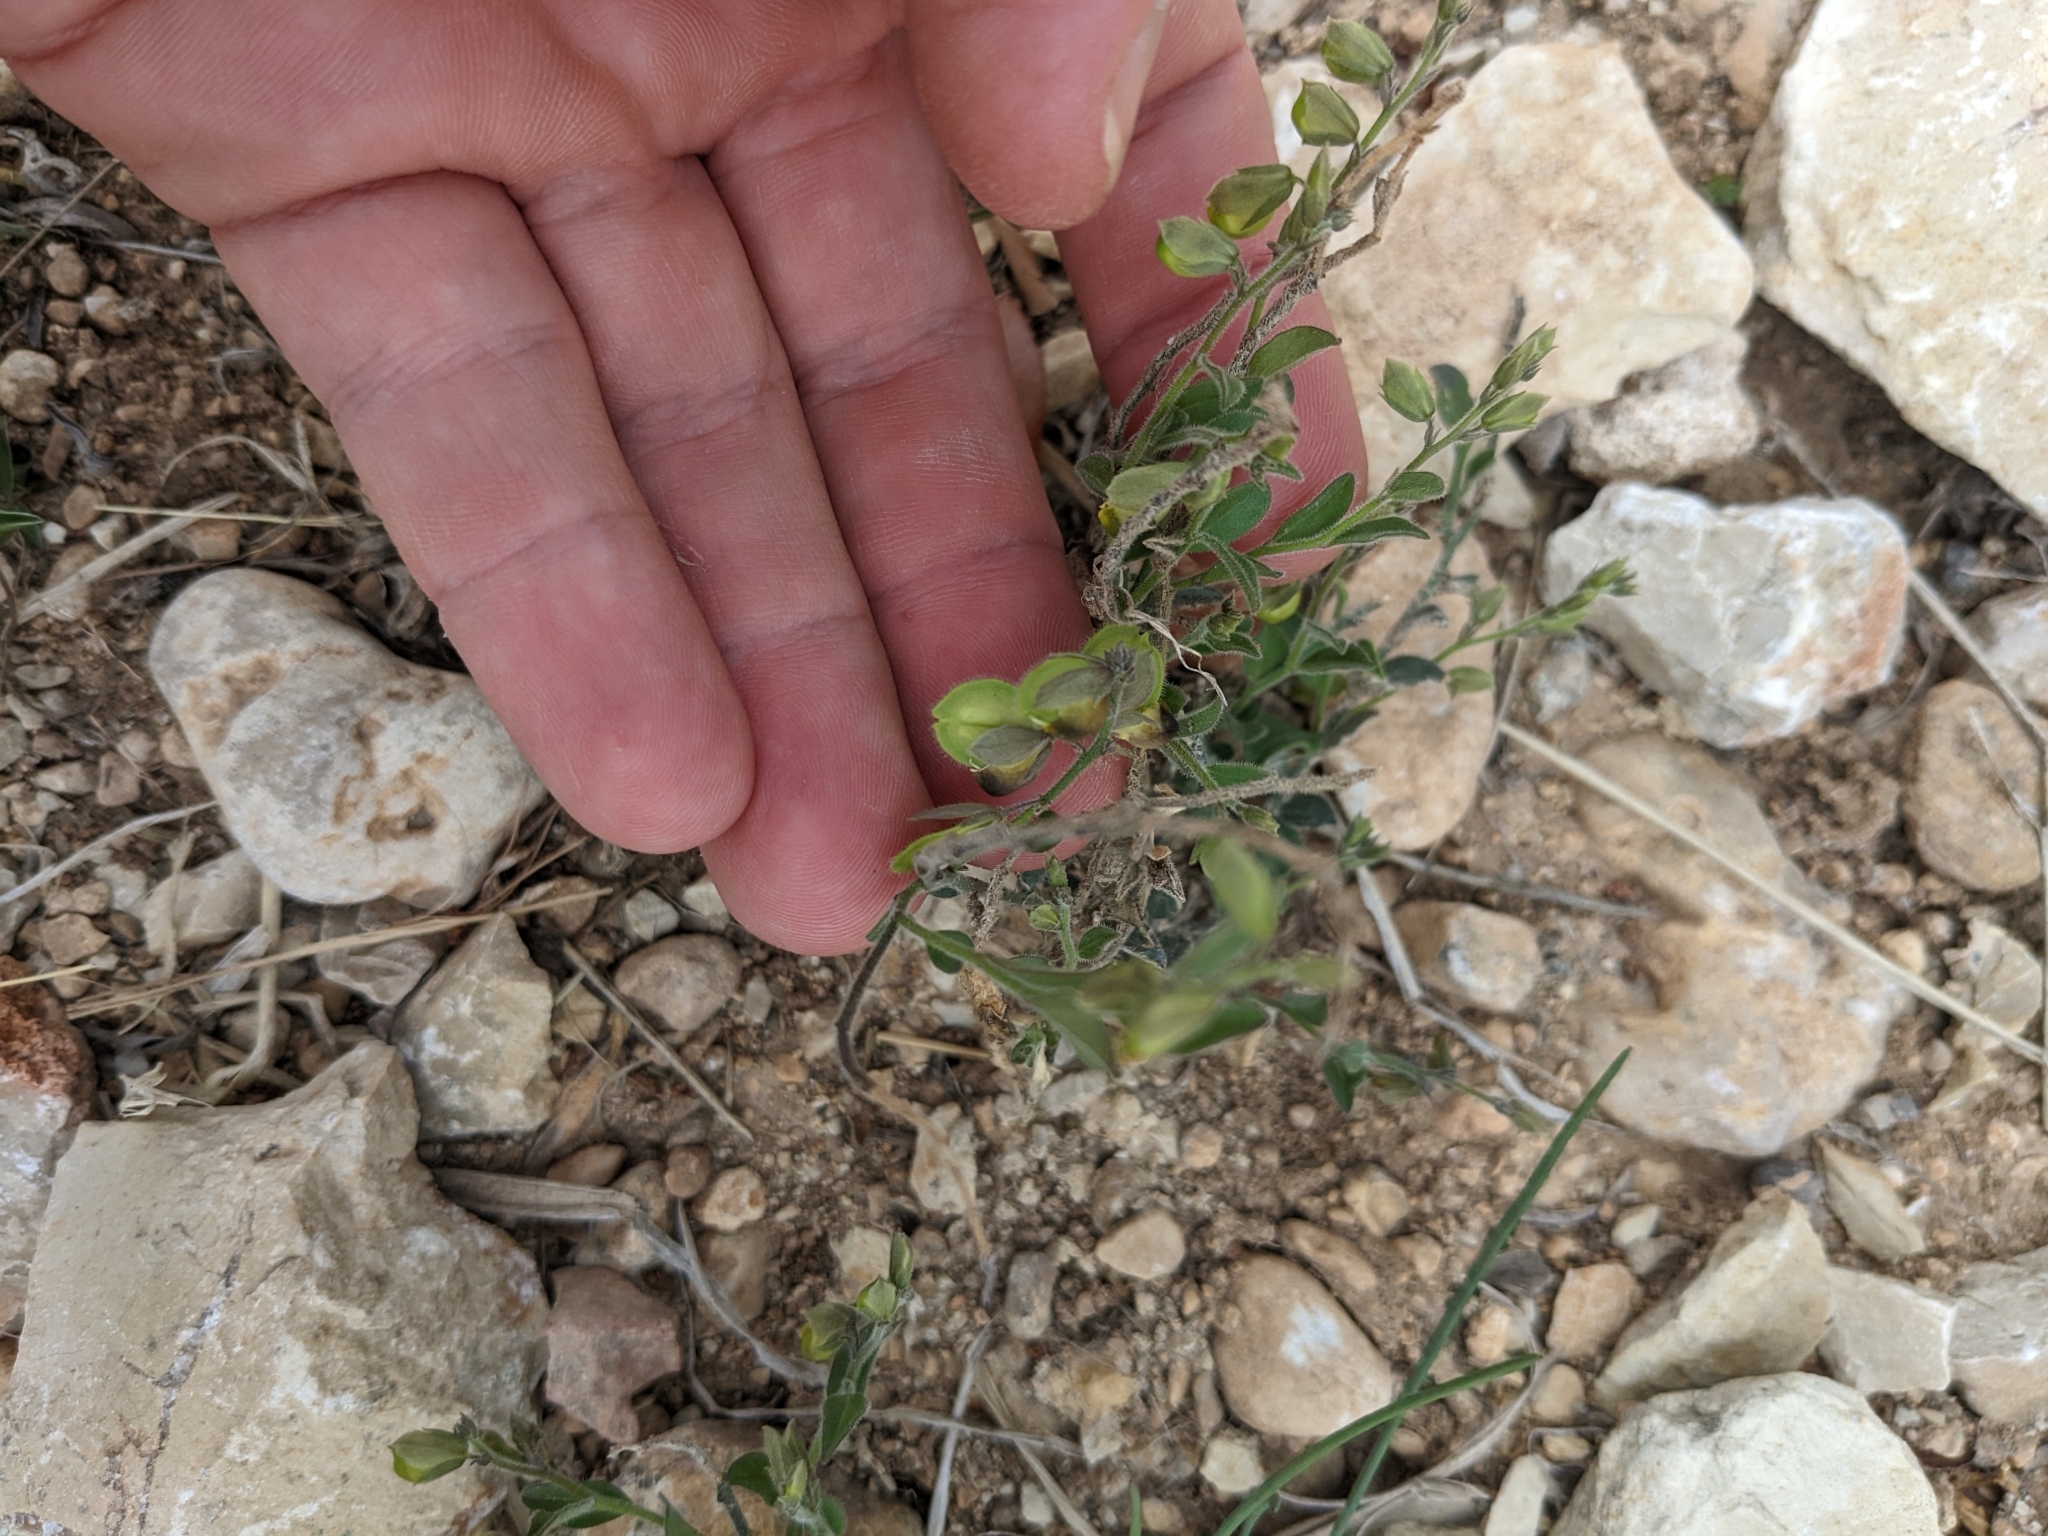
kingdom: Plantae
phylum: Tracheophyta
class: Magnoliopsida
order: Fabales
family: Polygalaceae
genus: Hebecarpa
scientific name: Hebecarpa ovatifolia
